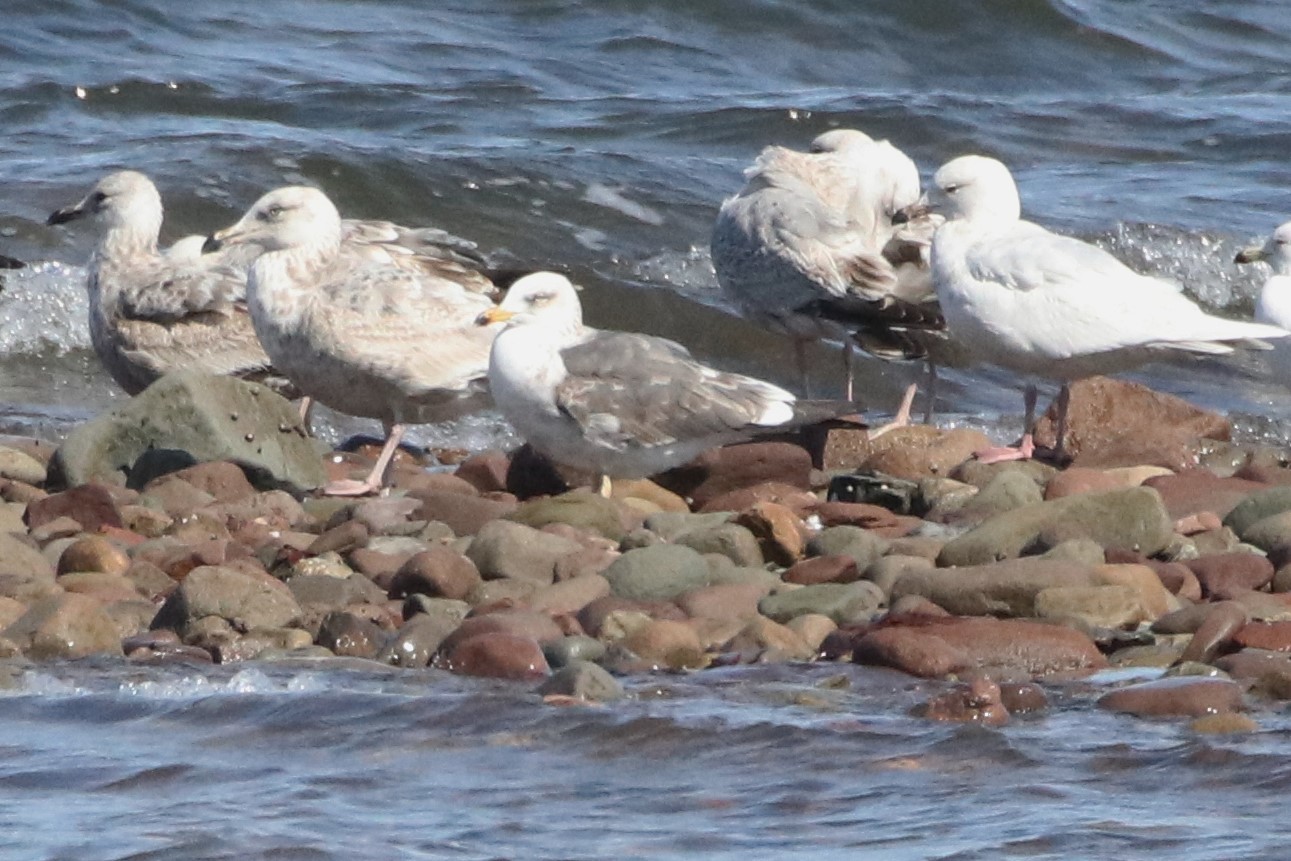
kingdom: Animalia
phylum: Chordata
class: Aves
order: Charadriiformes
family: Laridae
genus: Larus
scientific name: Larus fuscus
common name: Lesser black-backed gull
